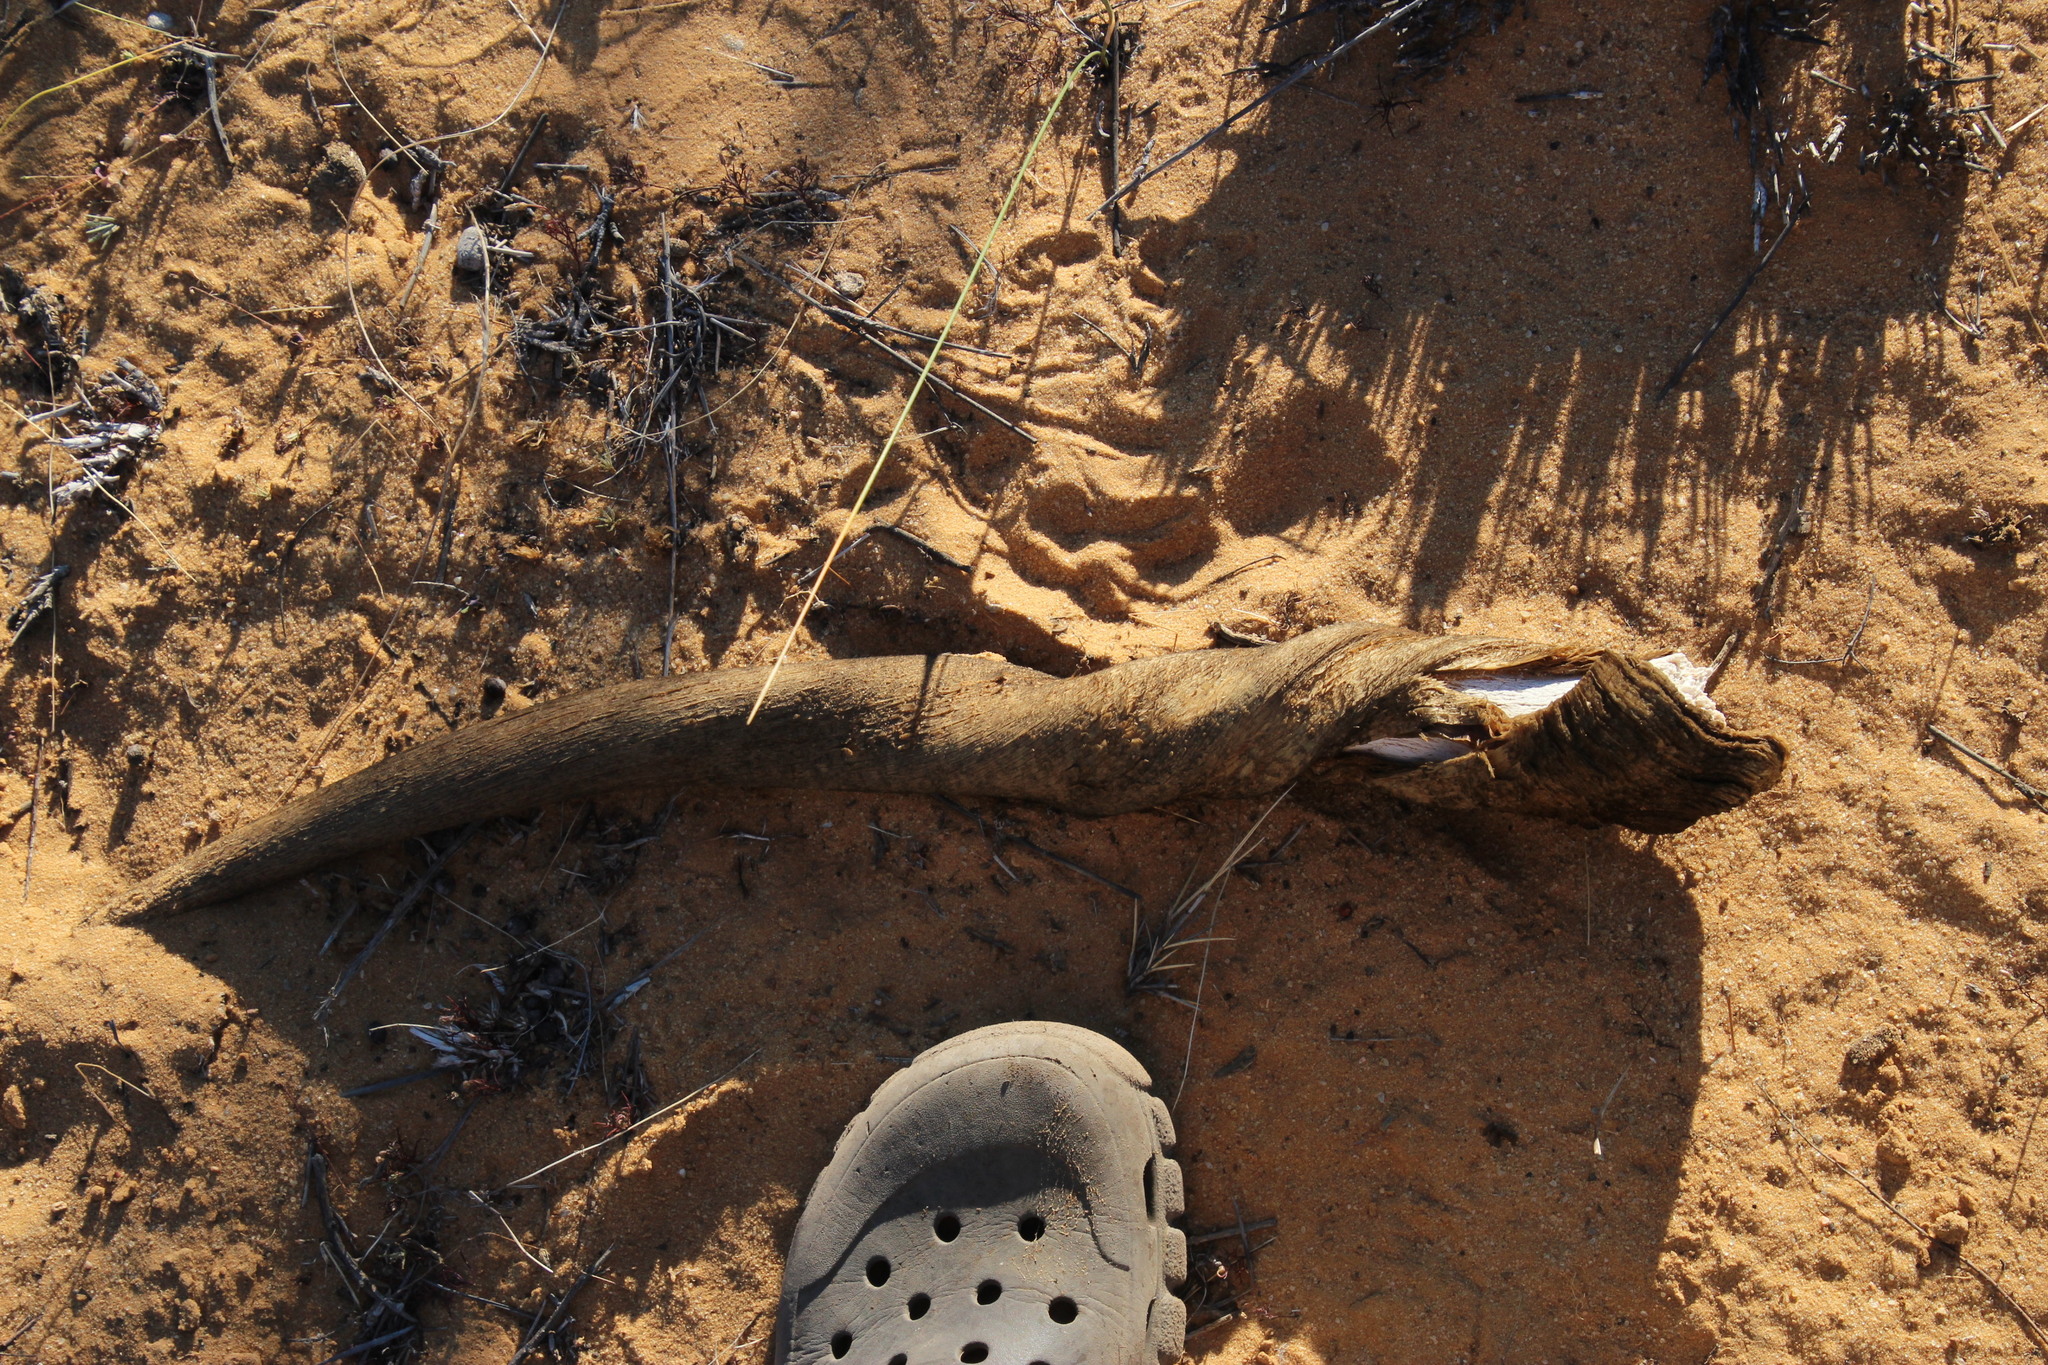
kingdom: Animalia
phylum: Chordata
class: Mammalia
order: Artiodactyla
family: Bovidae
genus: Taurotragus
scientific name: Taurotragus oryx
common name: Common eland
